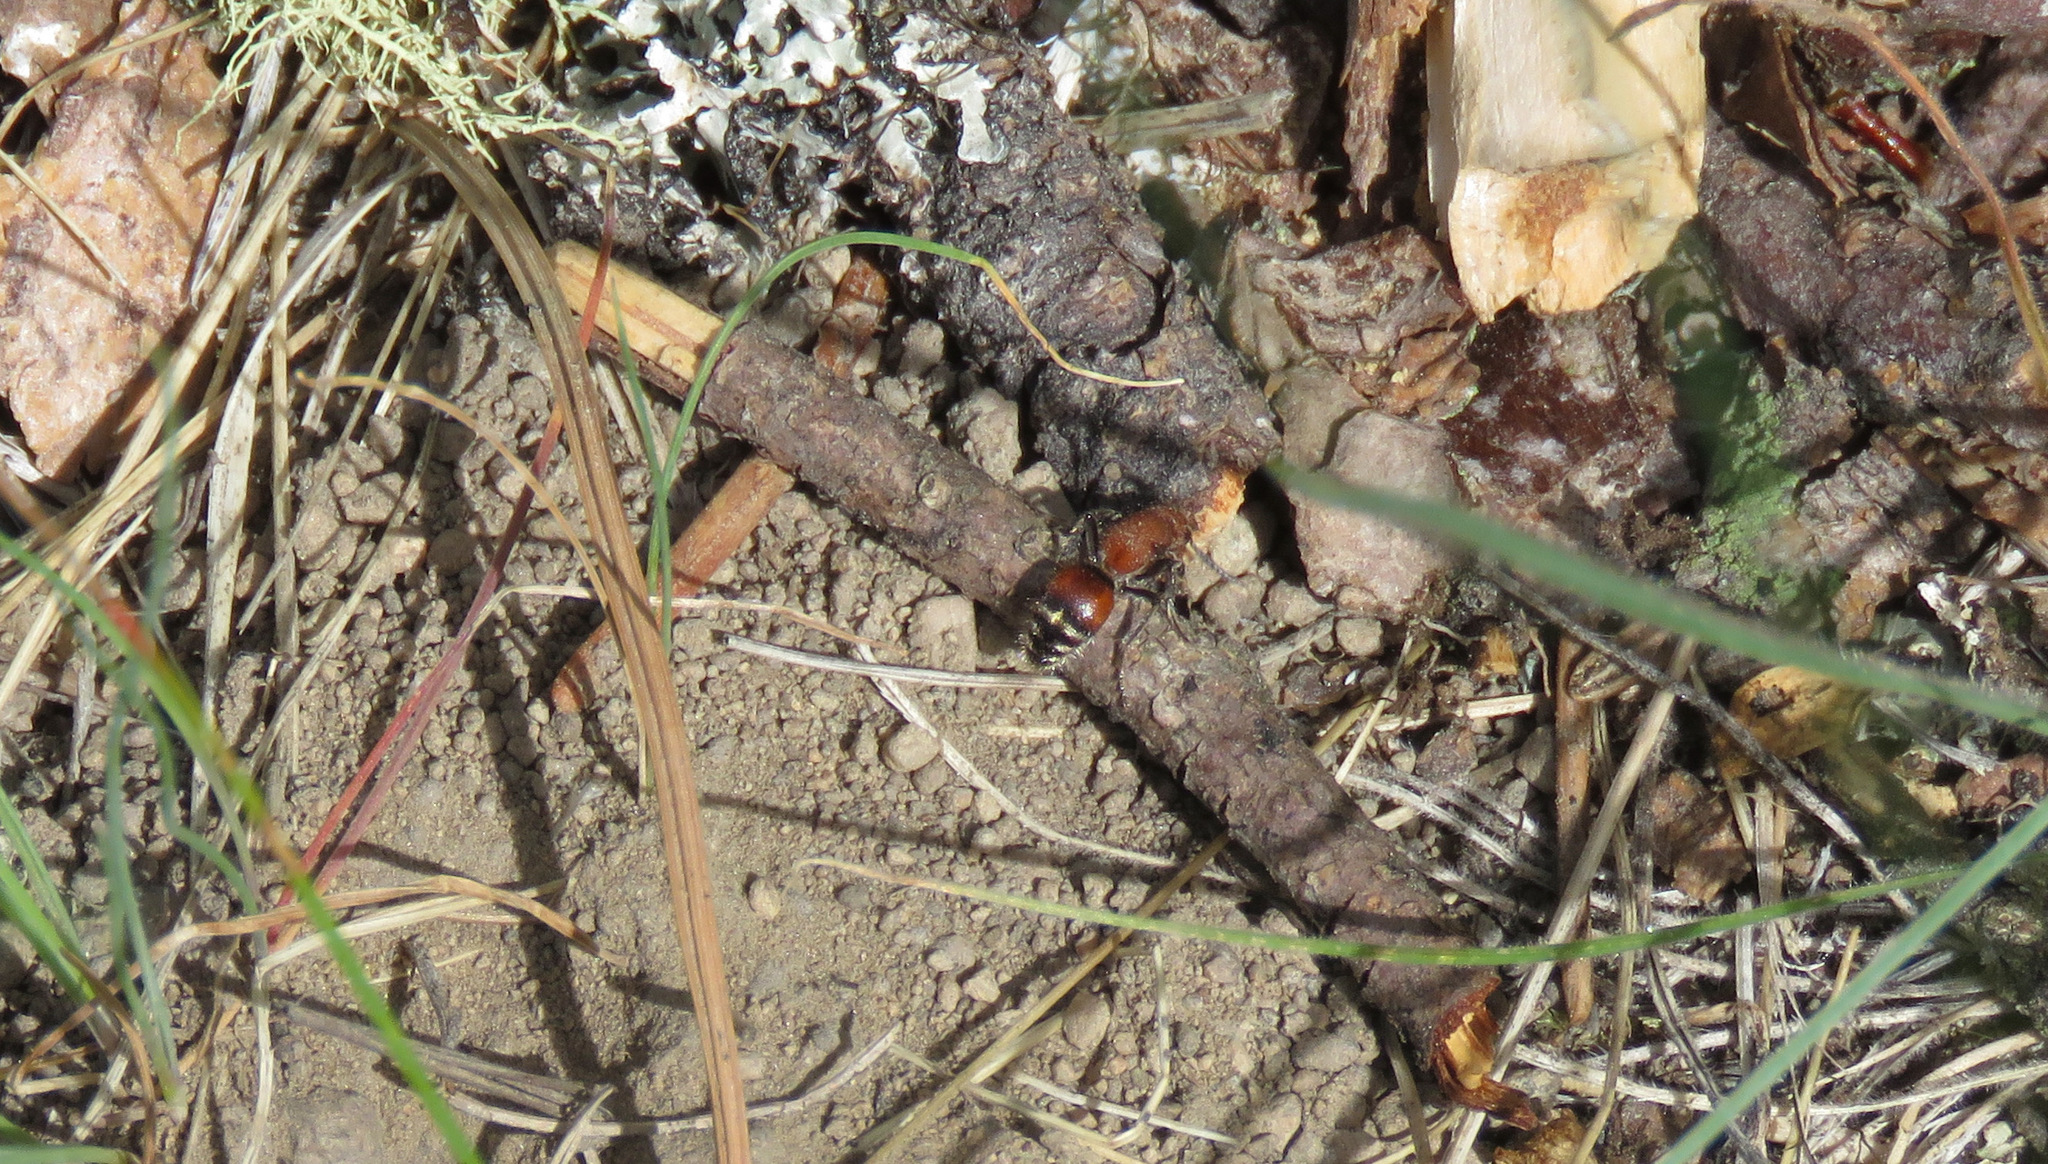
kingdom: Animalia
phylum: Arthropoda
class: Insecta
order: Hymenoptera
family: Mutillidae
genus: Timulla
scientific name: Timulla
